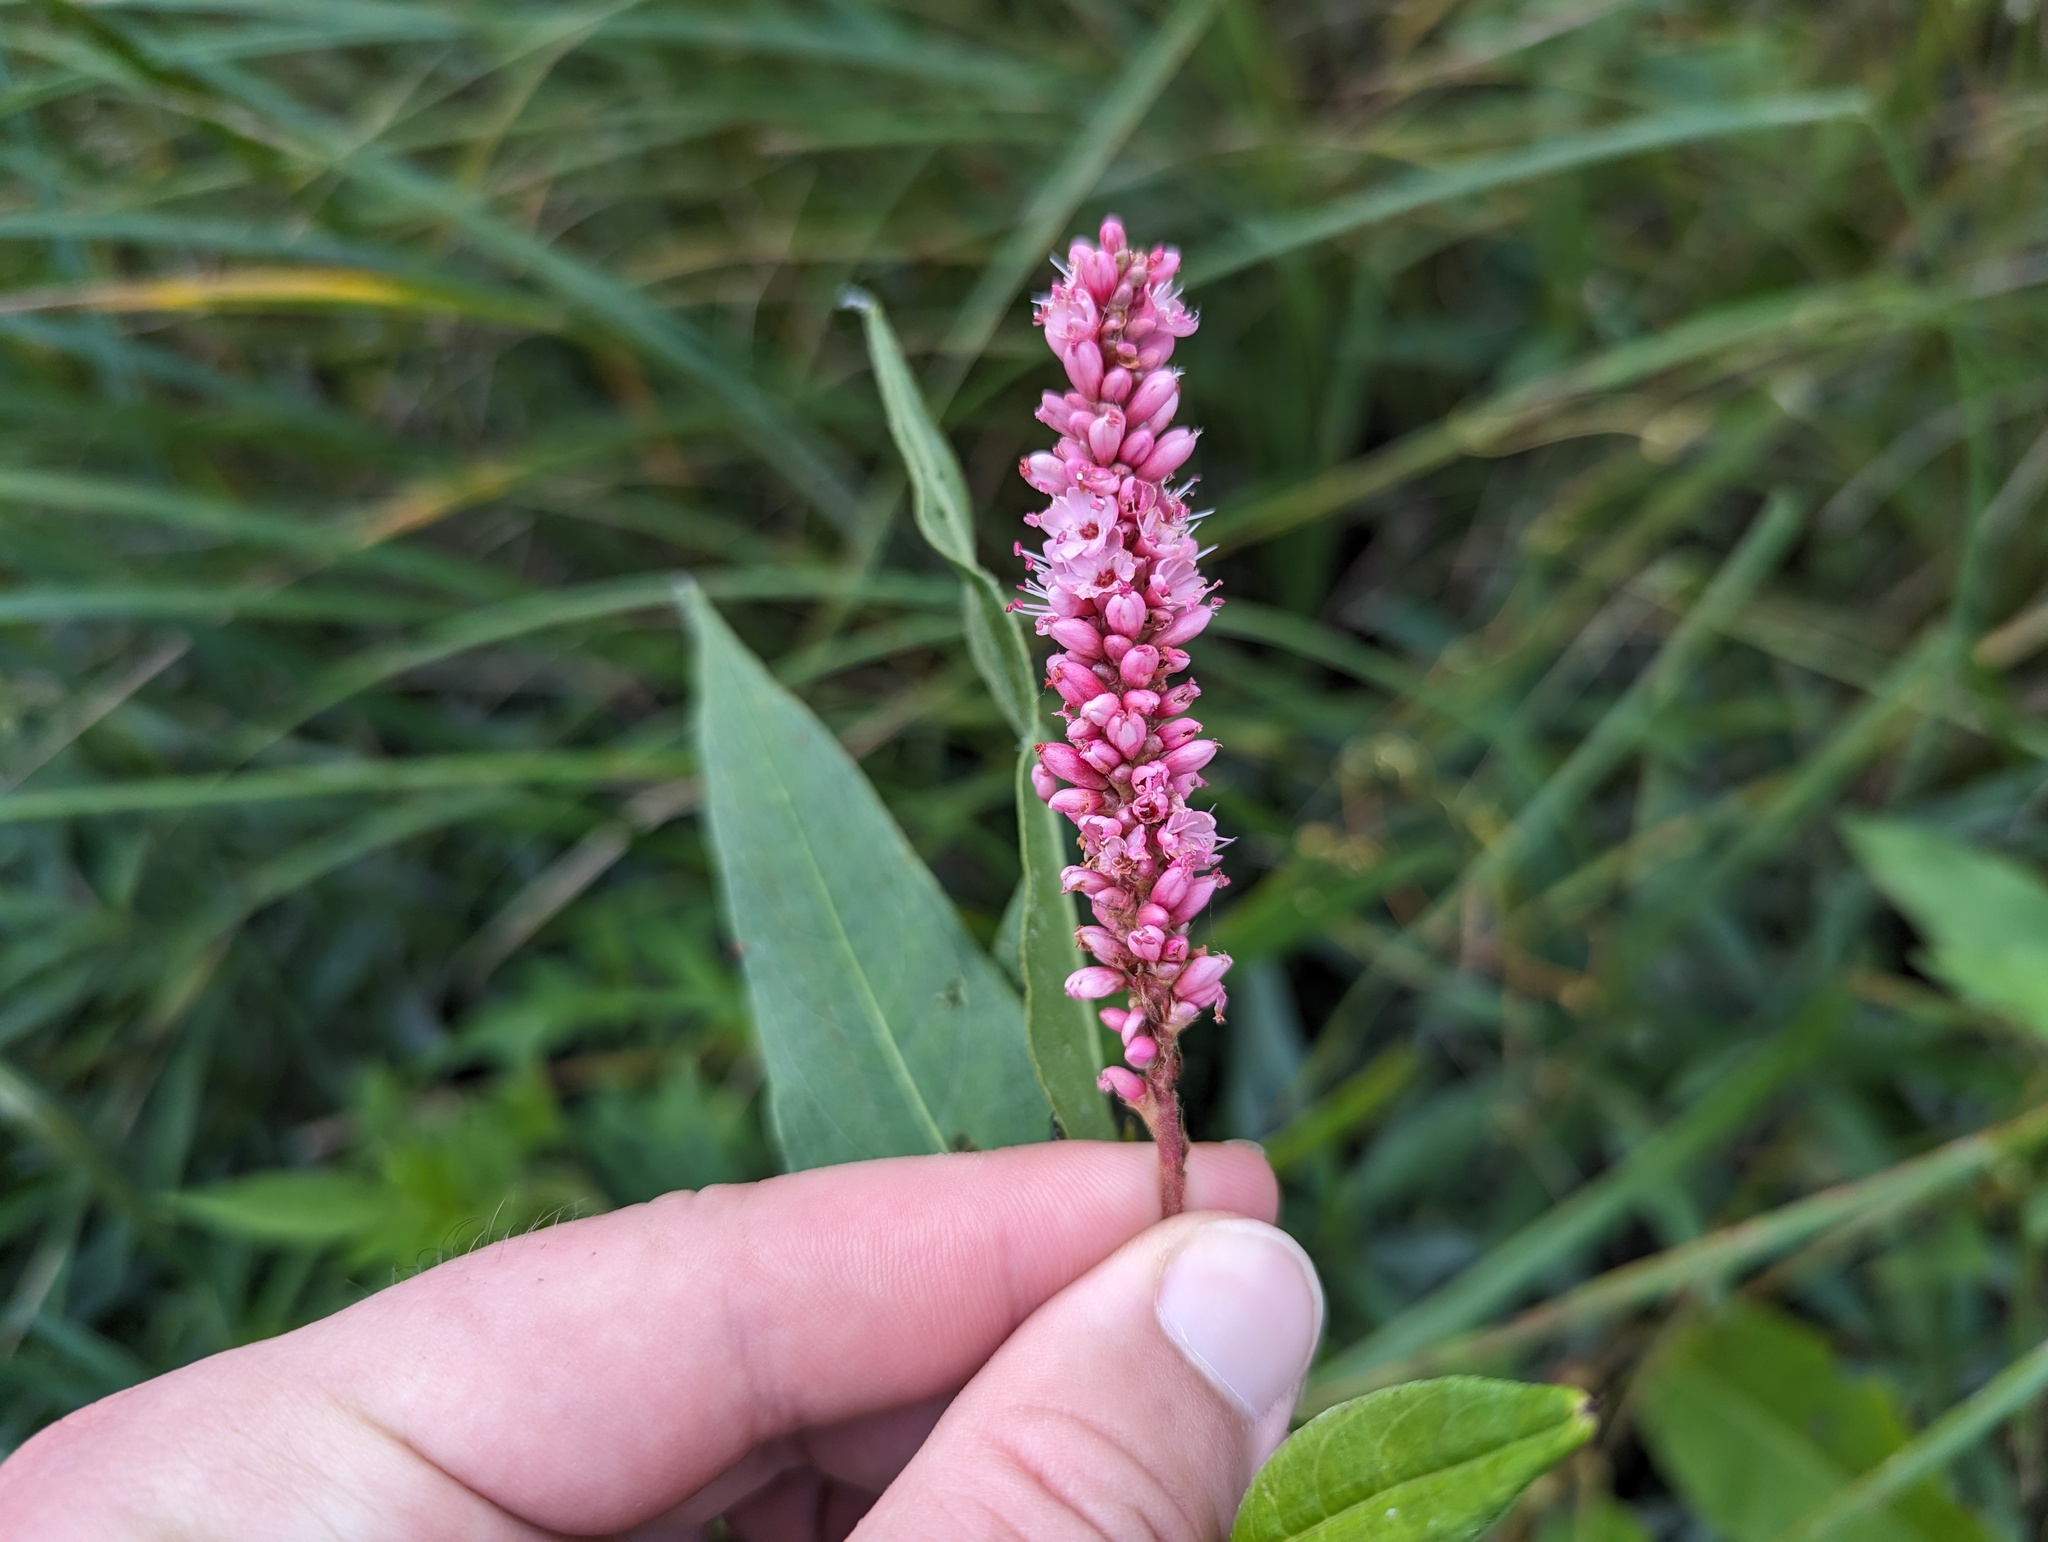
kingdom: Plantae
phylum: Tracheophyta
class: Magnoliopsida
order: Caryophyllales
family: Polygonaceae
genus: Persicaria
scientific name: Persicaria amphibia
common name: Amphibious bistort
